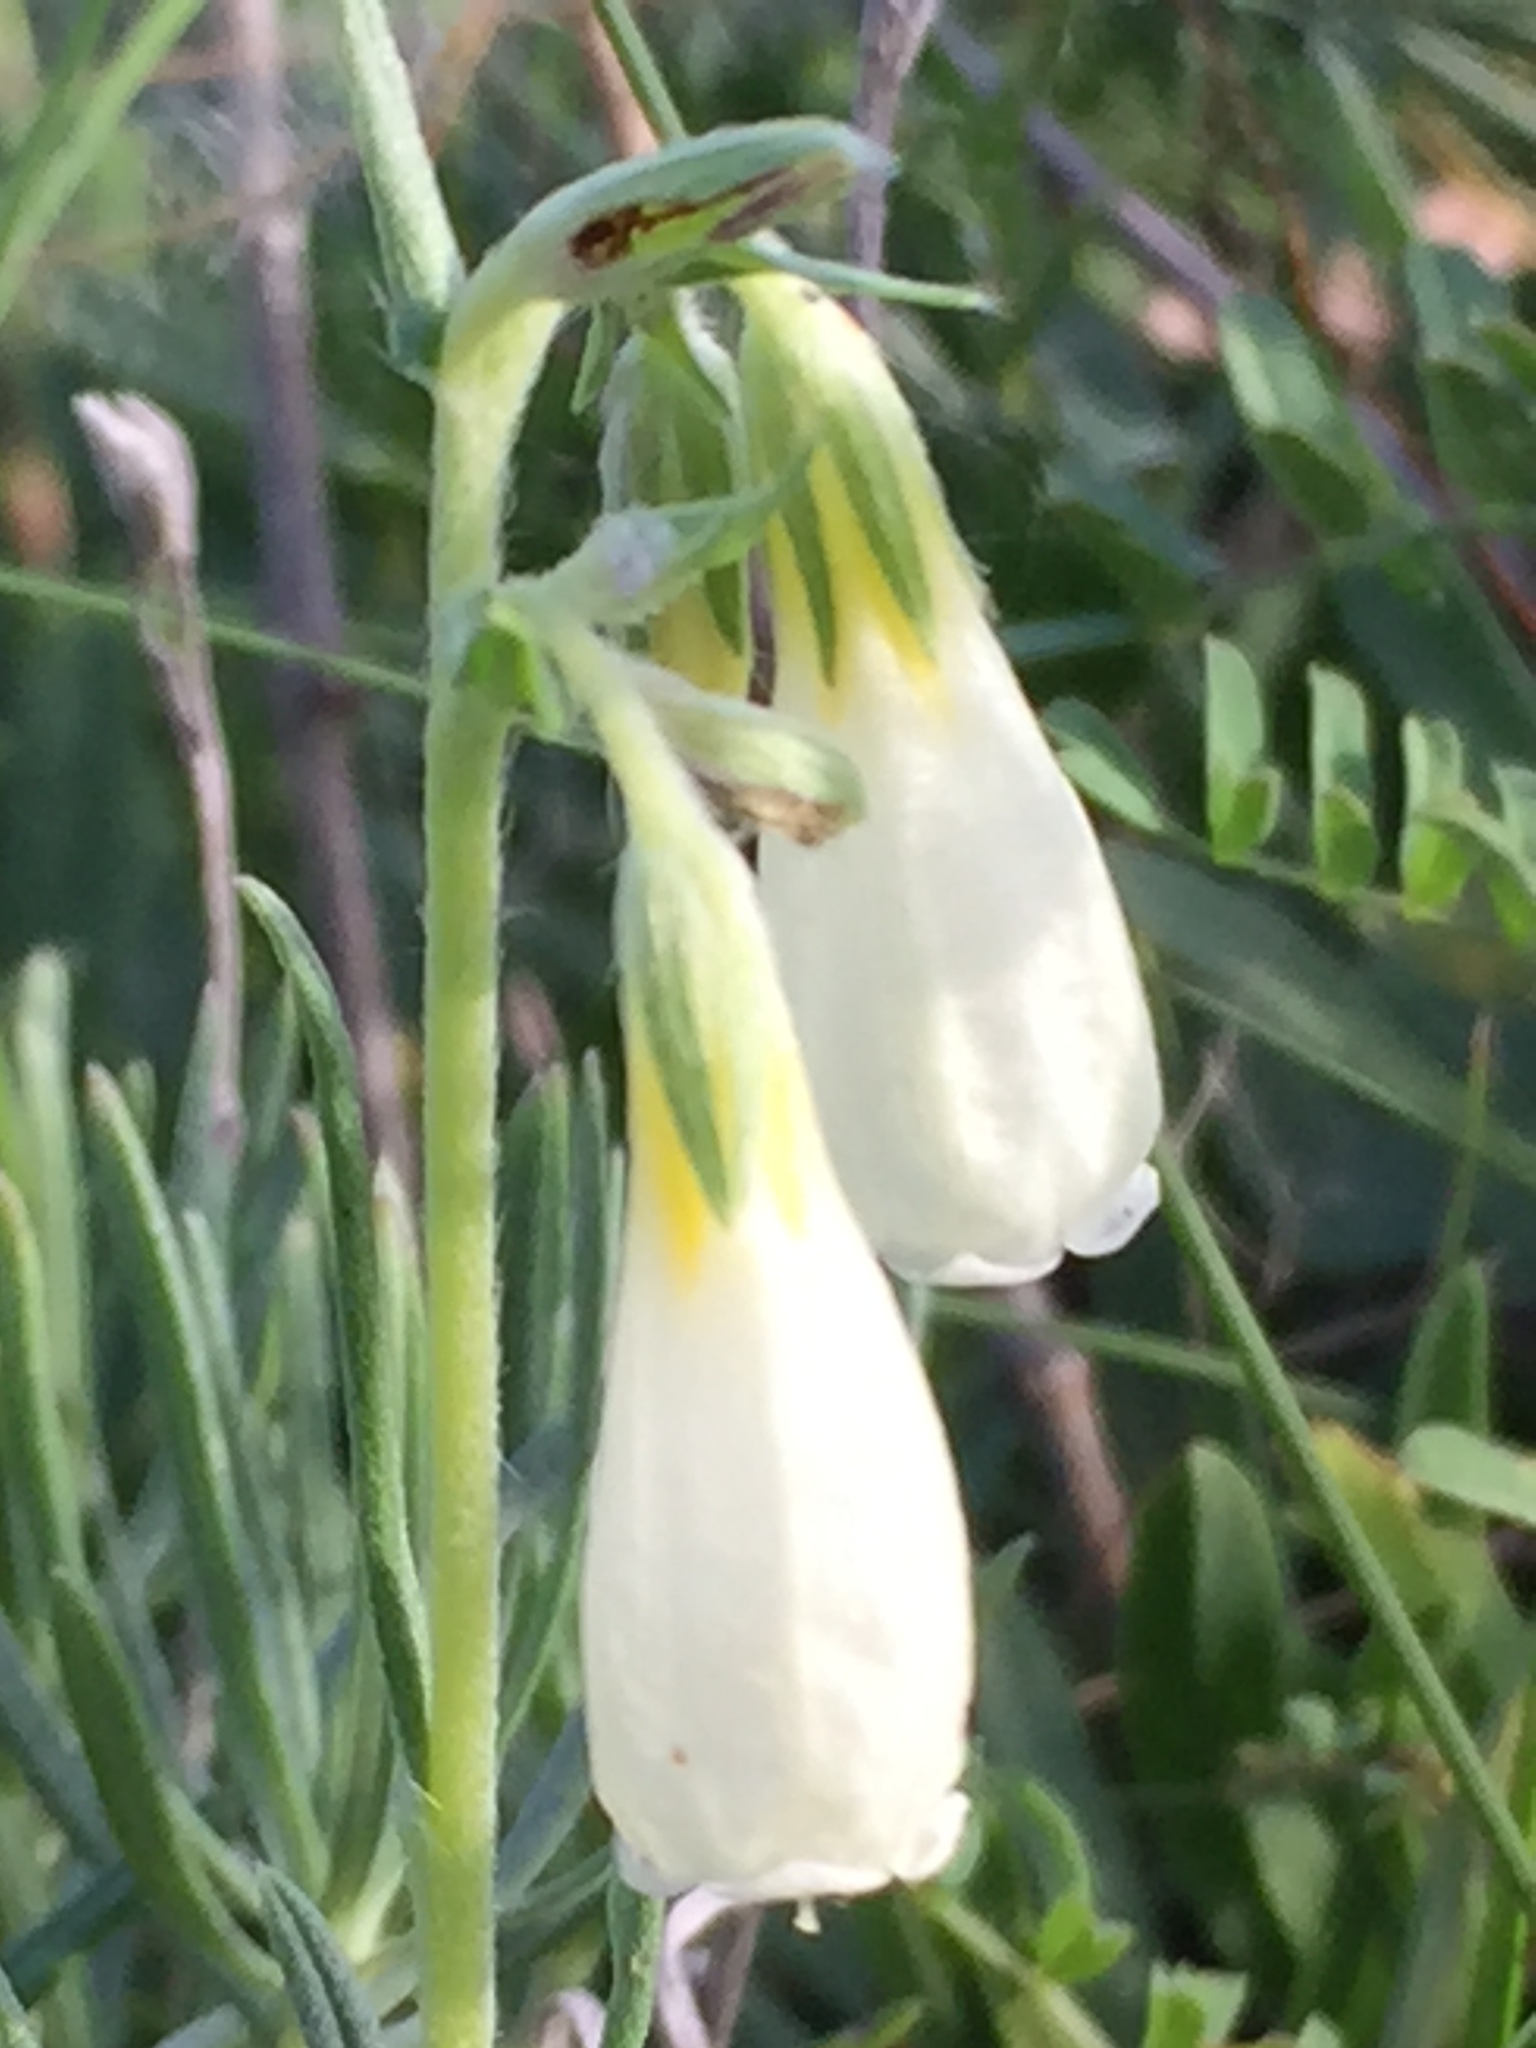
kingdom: Plantae
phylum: Tracheophyta
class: Magnoliopsida
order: Boraginales
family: Boraginaceae
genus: Onosma
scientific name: Onosma simplicissima
